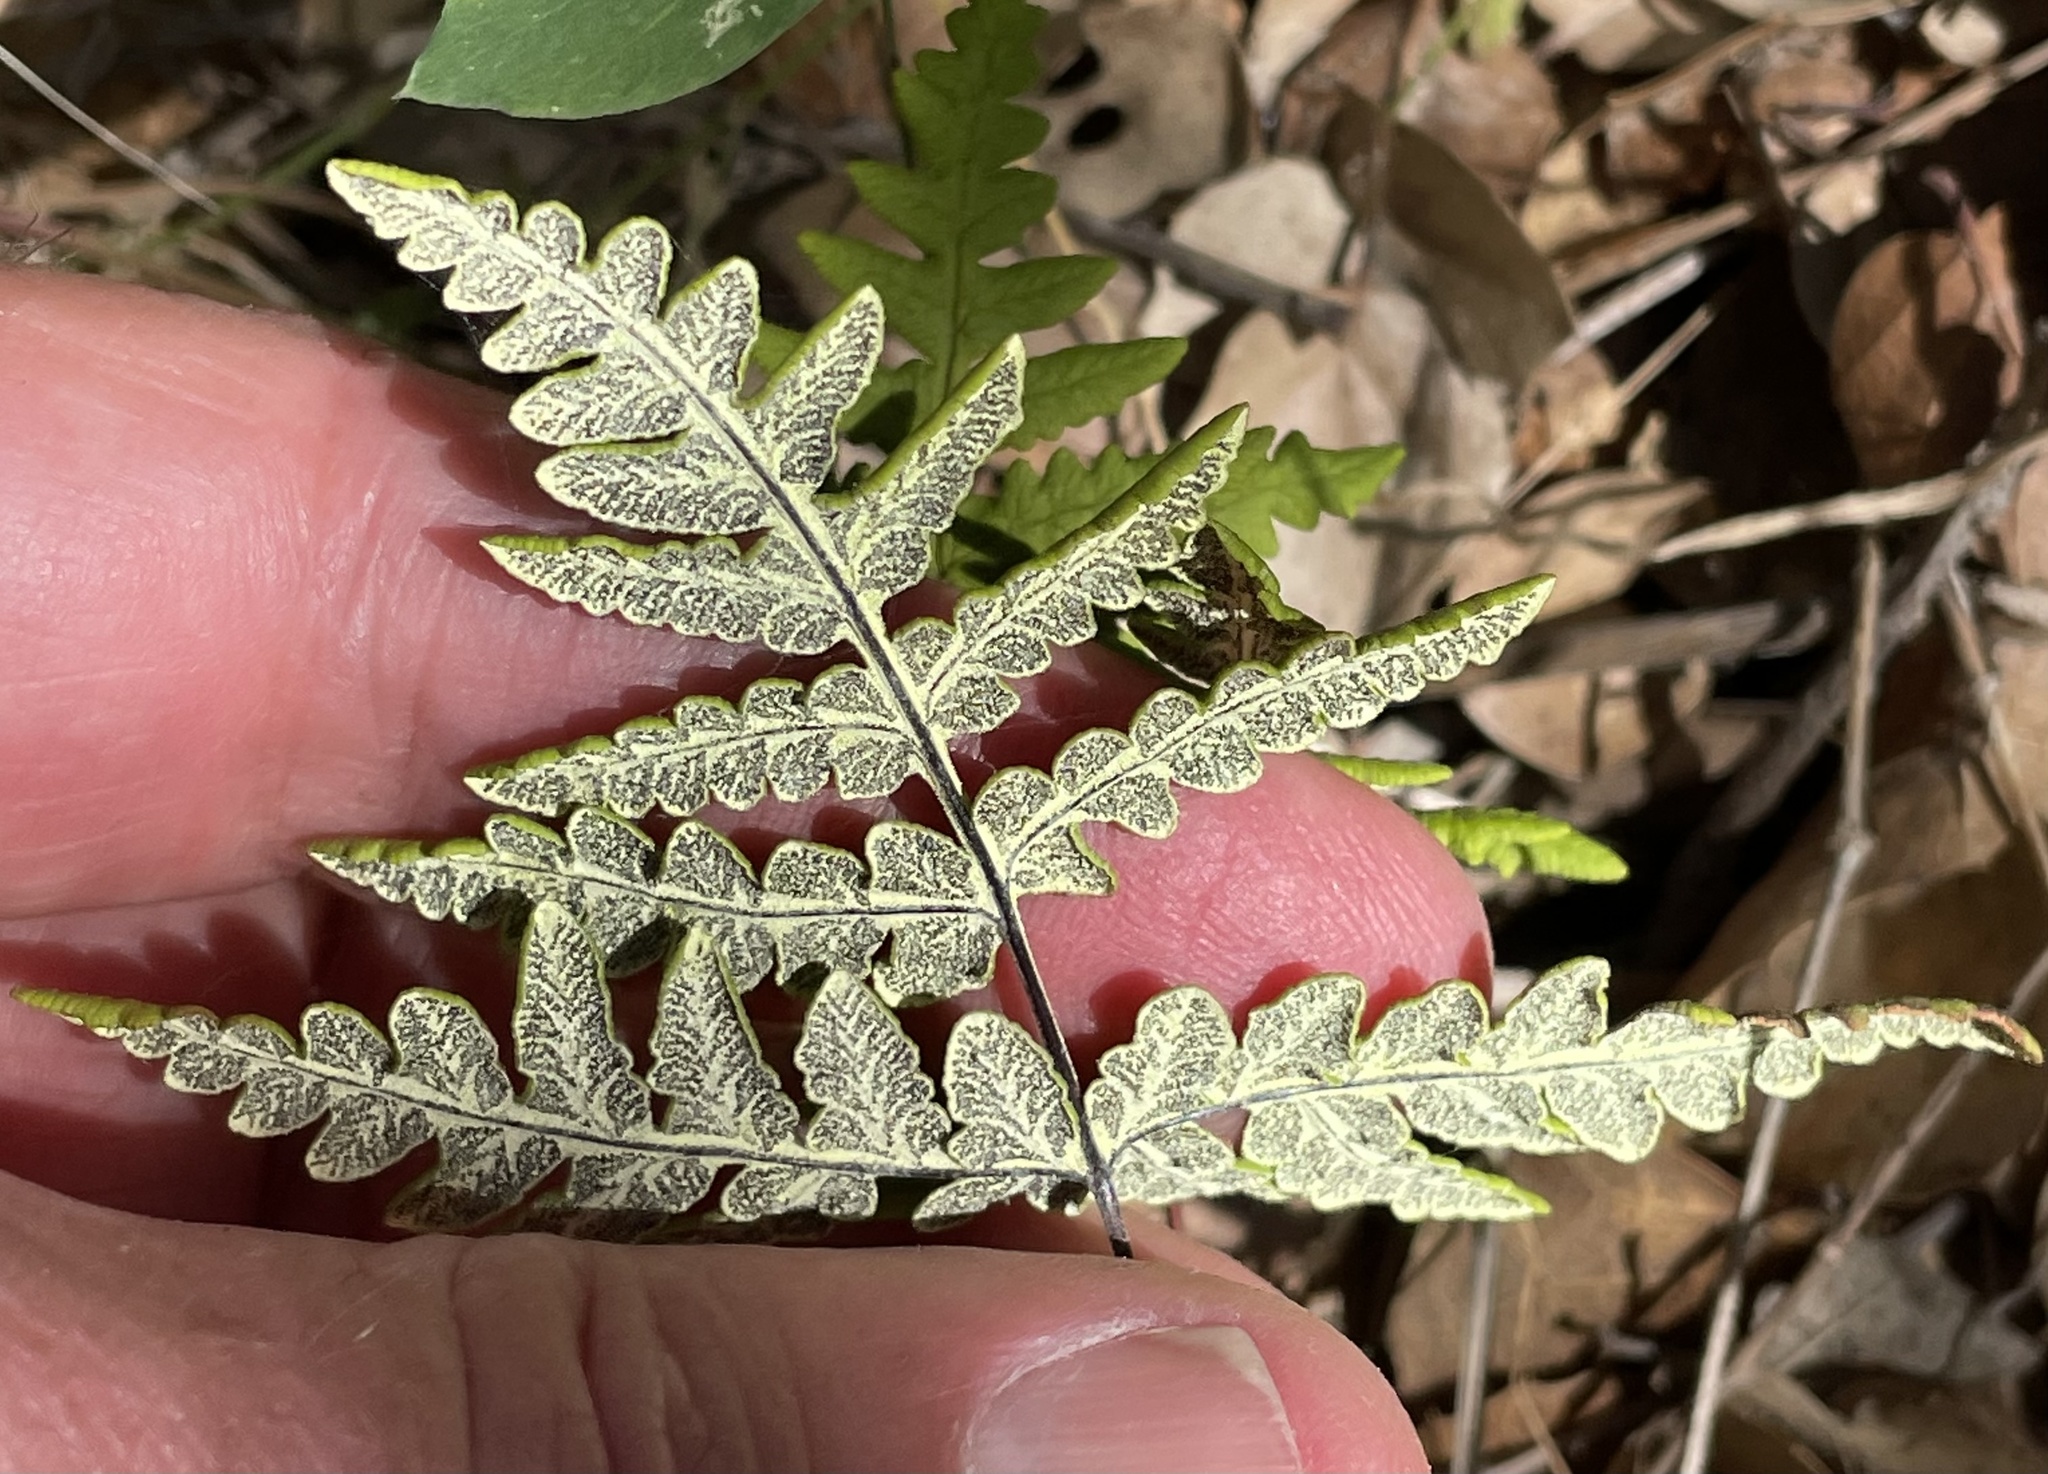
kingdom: Plantae
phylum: Tracheophyta
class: Polypodiopsida
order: Polypodiales
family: Pteridaceae
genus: Pentagramma
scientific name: Pentagramma triangularis
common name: Gold fern
